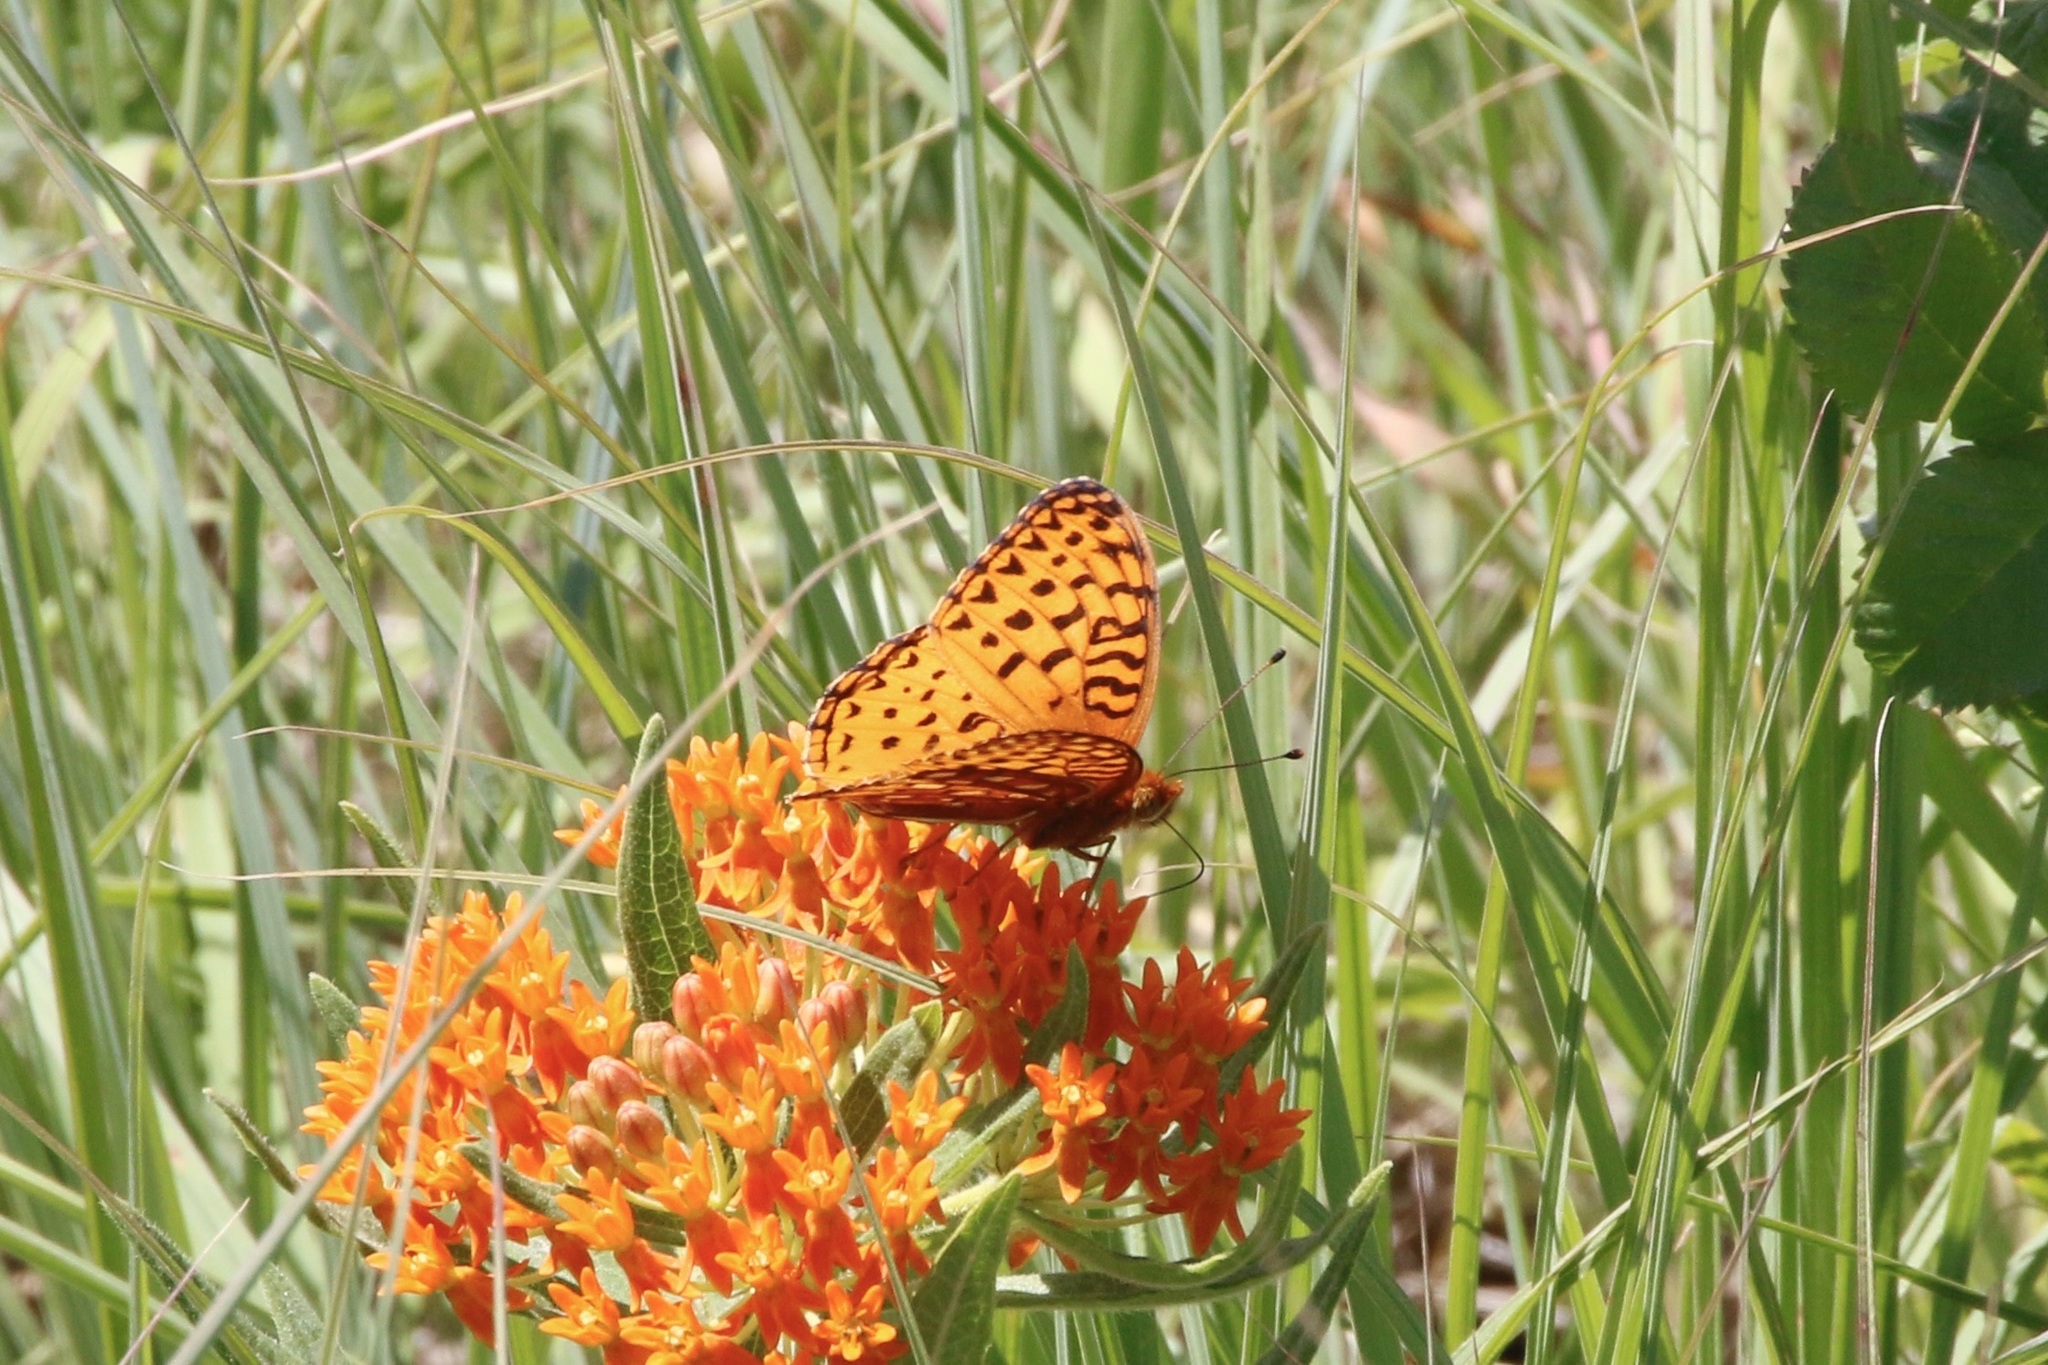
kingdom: Animalia
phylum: Arthropoda
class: Insecta
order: Lepidoptera
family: Nymphalidae
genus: Speyeria
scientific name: Speyeria aphrodite
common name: Aphrodite friitllary
